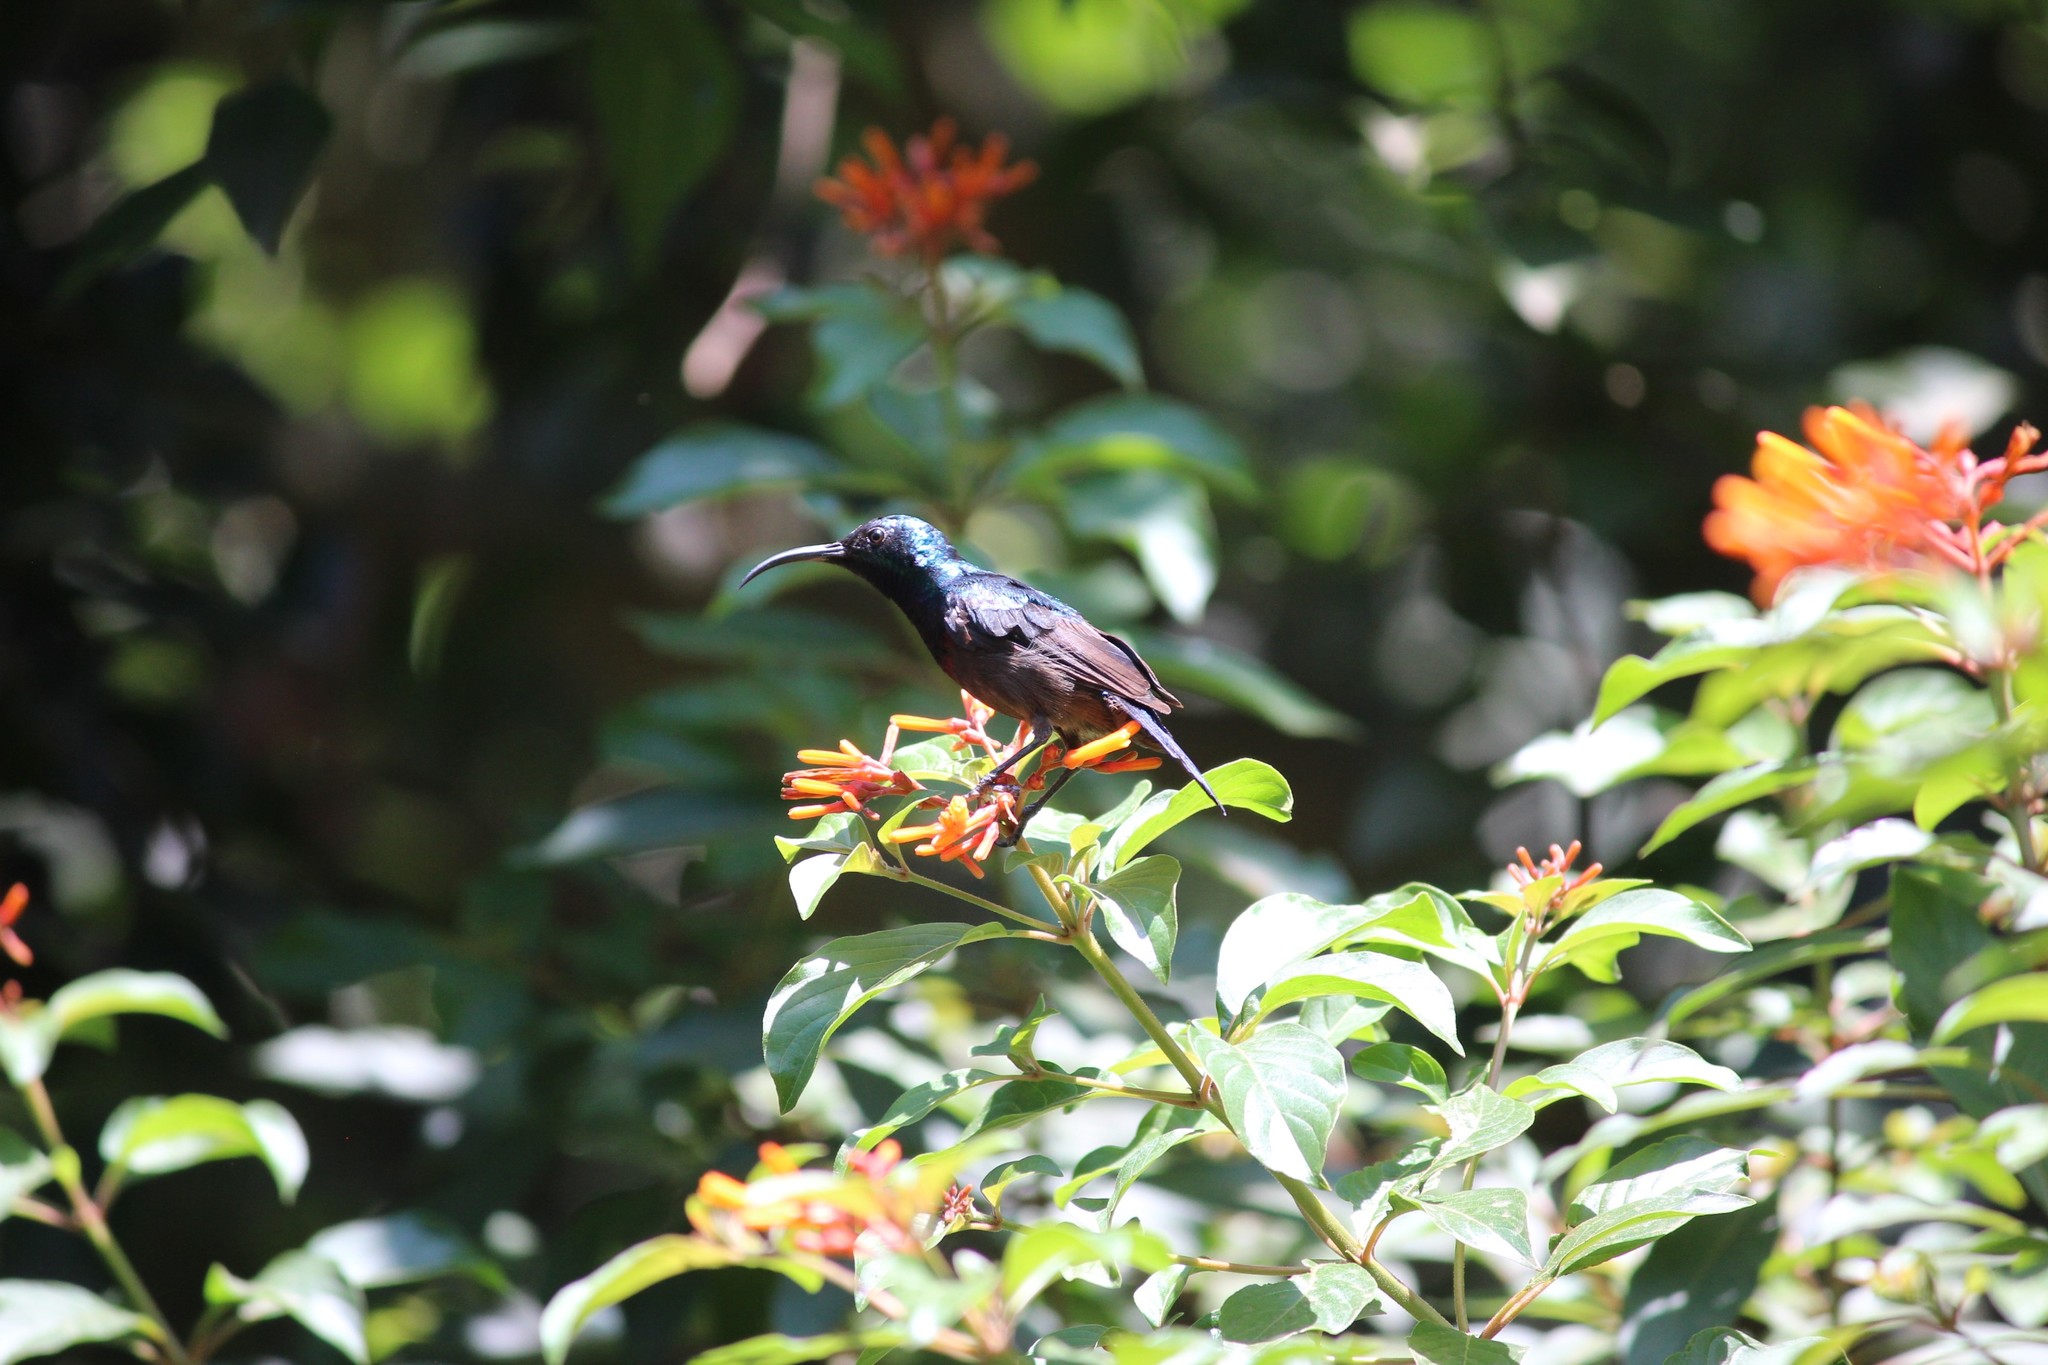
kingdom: Animalia
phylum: Chordata
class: Aves
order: Passeriformes
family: Nectariniidae
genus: Cinnyris
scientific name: Cinnyris lotenius
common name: Loten's sunbird
